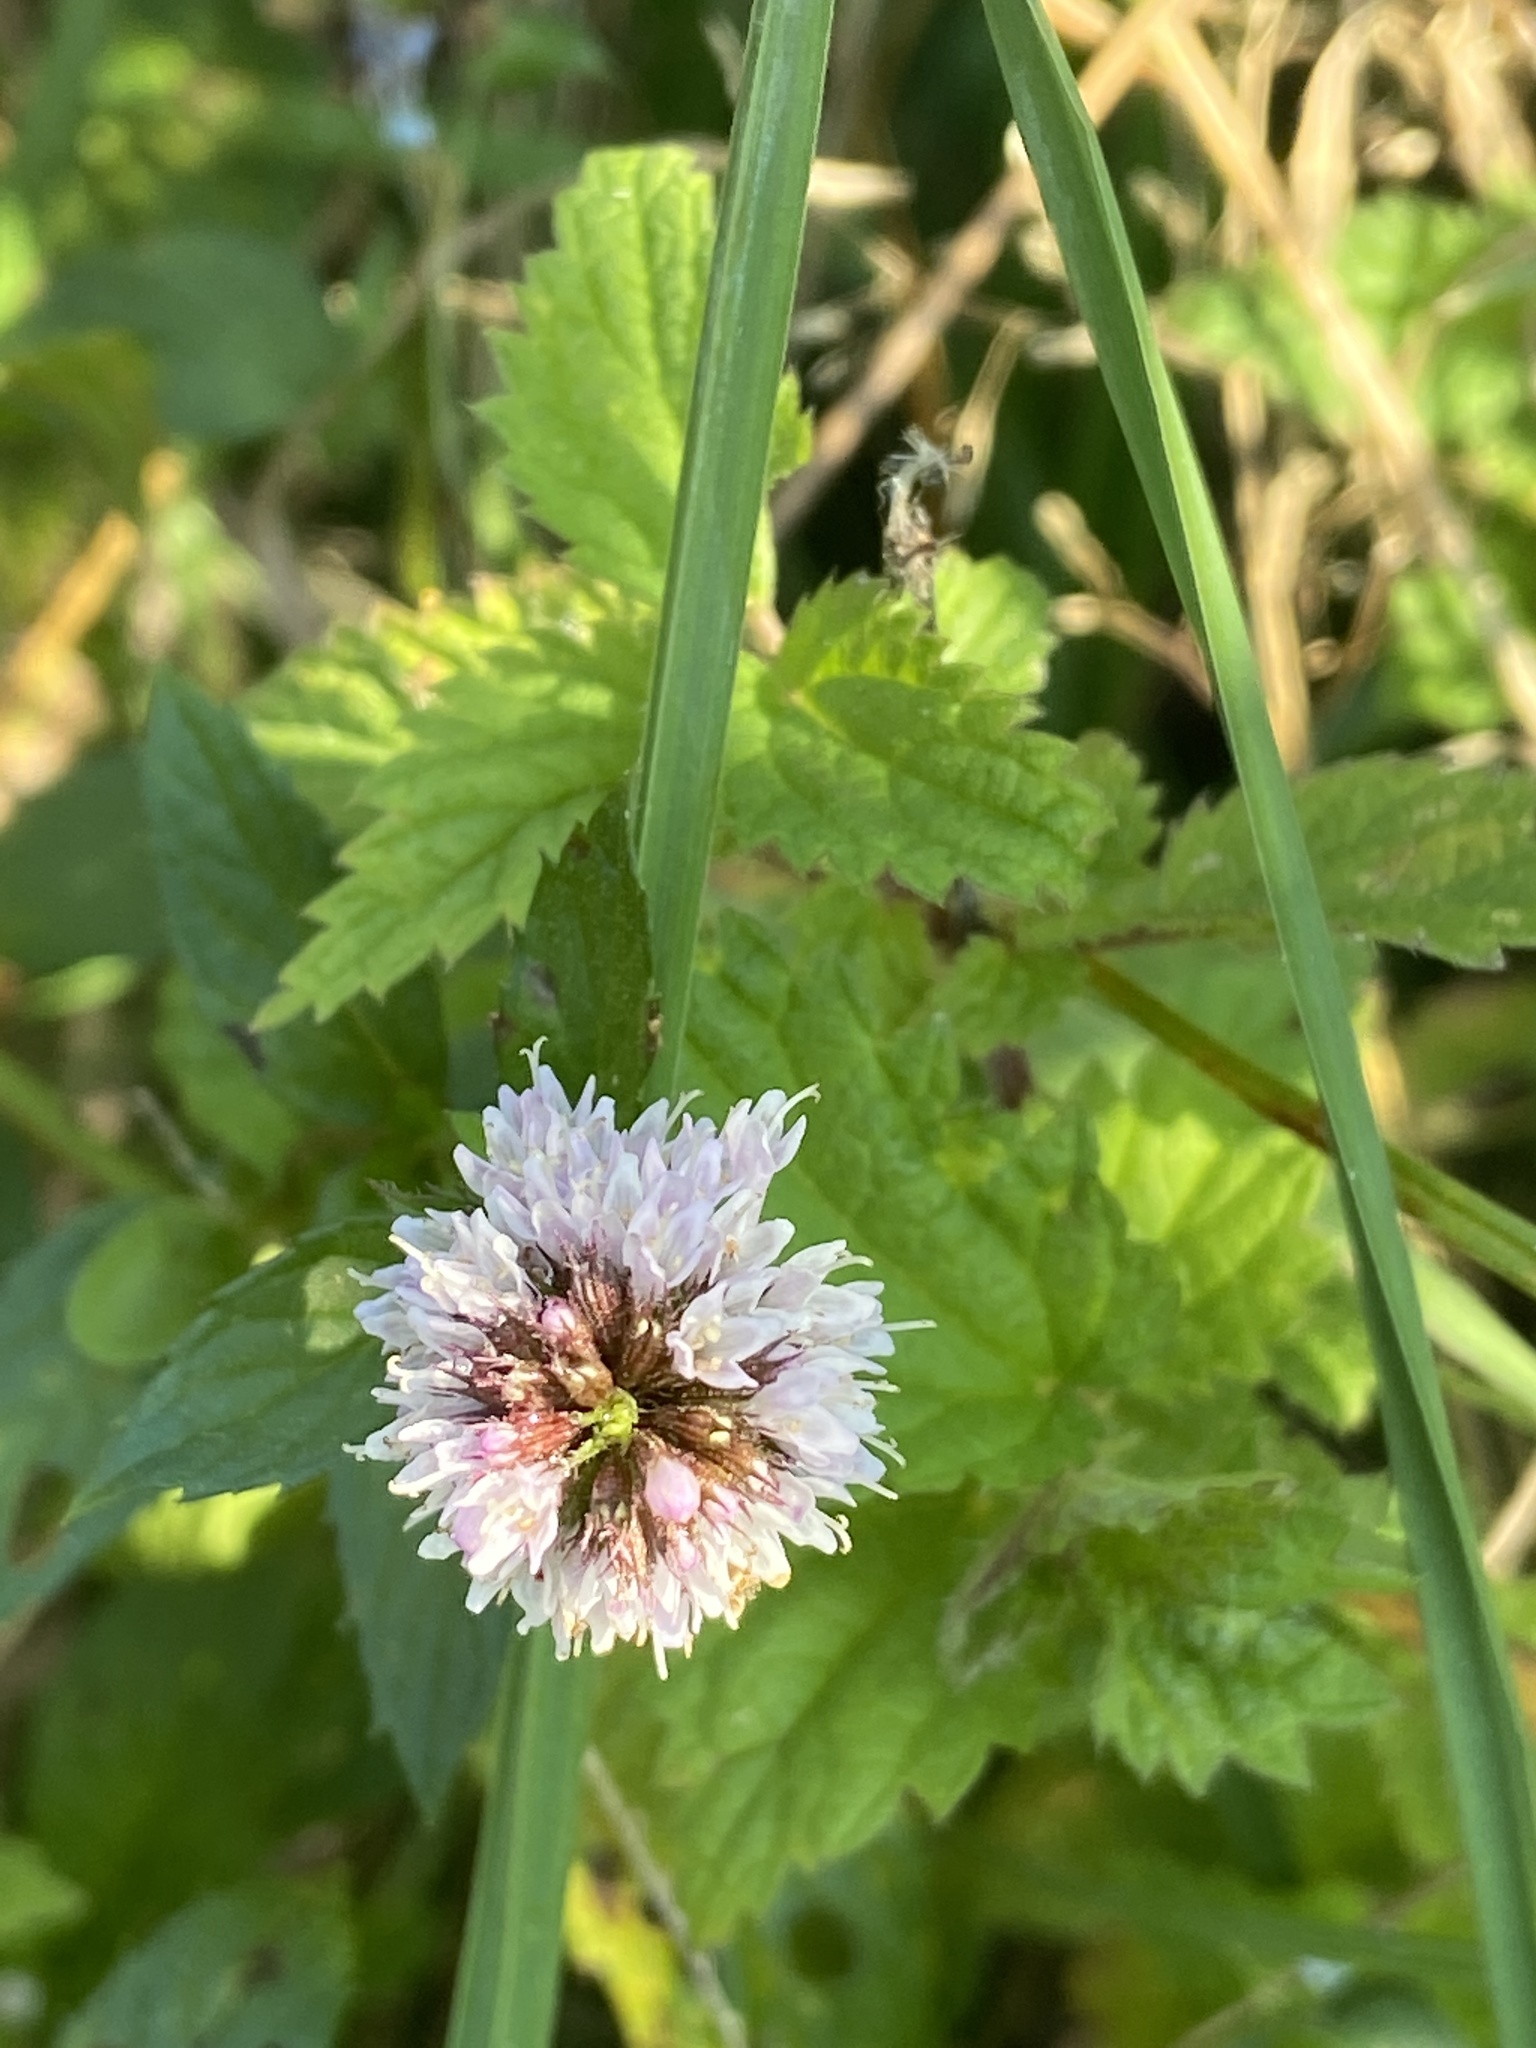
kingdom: Plantae
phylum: Tracheophyta
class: Magnoliopsida
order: Lamiales
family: Lamiaceae
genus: Mentha
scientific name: Mentha aquatica
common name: Water mint
